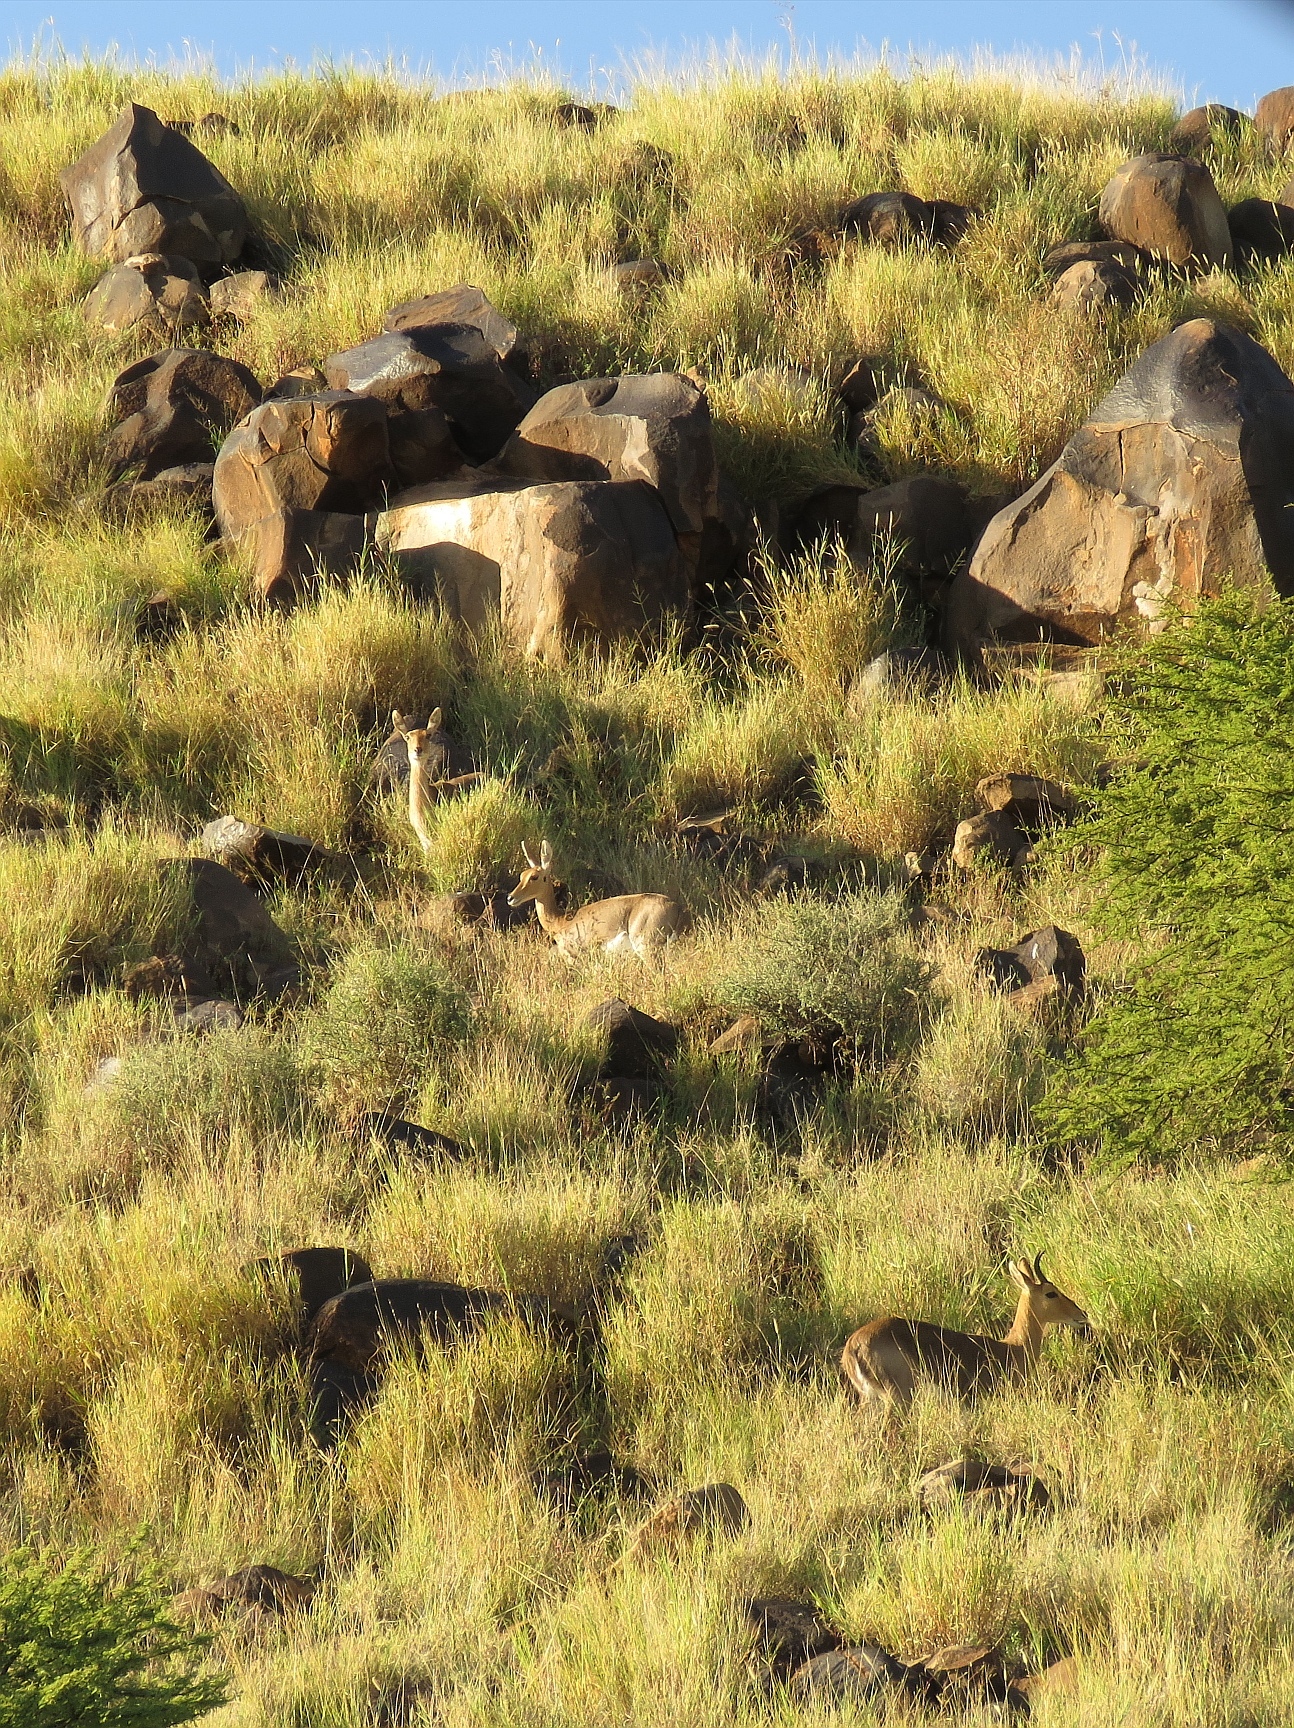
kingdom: Animalia
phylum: Chordata
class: Mammalia
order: Artiodactyla
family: Bovidae
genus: Redunca
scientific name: Redunca fulvorufula
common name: Mountain reedbuck
